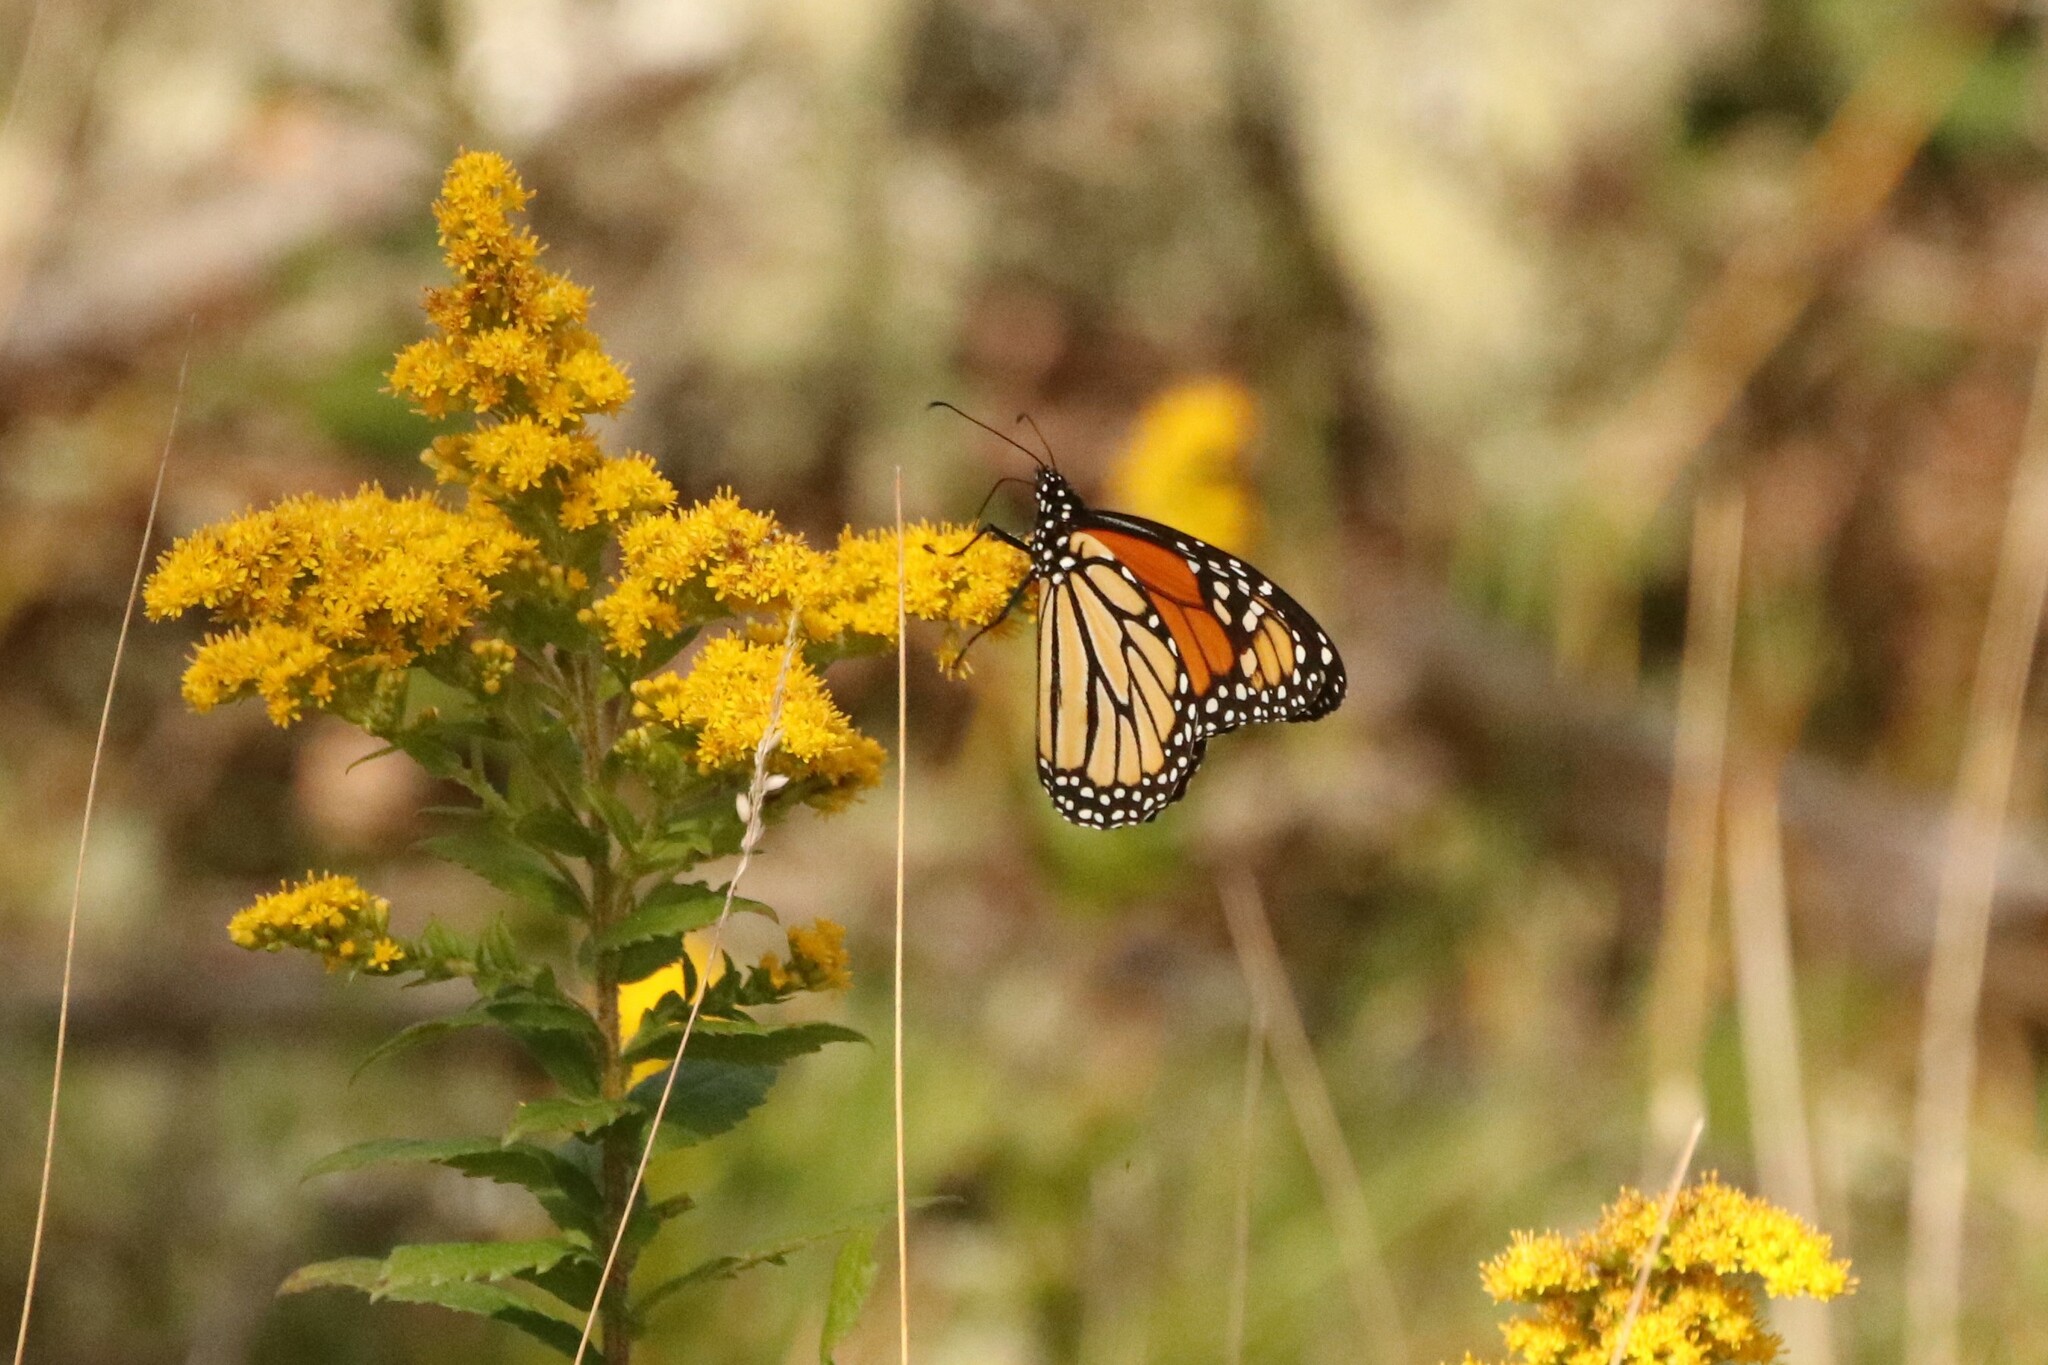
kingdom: Animalia
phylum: Arthropoda
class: Insecta
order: Lepidoptera
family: Nymphalidae
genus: Danaus
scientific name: Danaus plexippus
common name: Monarch
